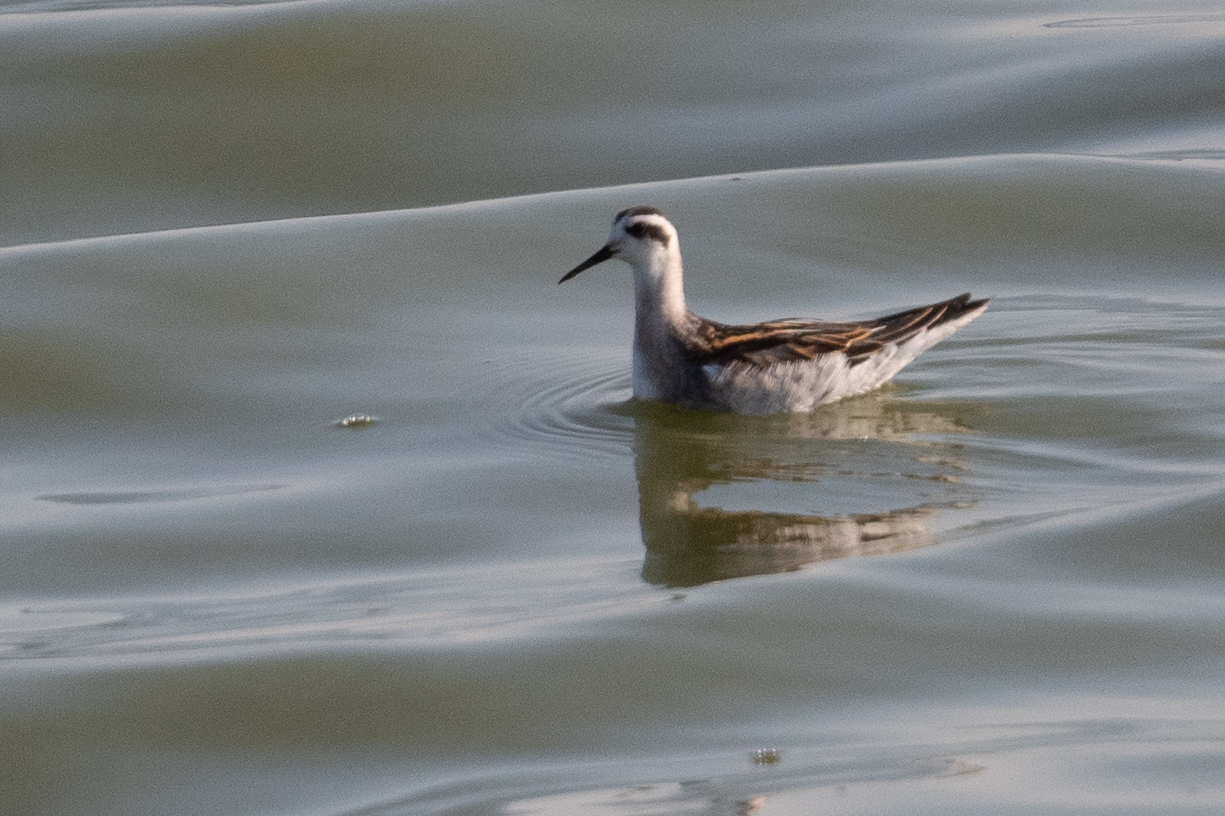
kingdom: Animalia
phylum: Chordata
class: Aves
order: Charadriiformes
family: Scolopacidae
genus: Phalaropus
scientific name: Phalaropus lobatus
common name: Red-necked phalarope
